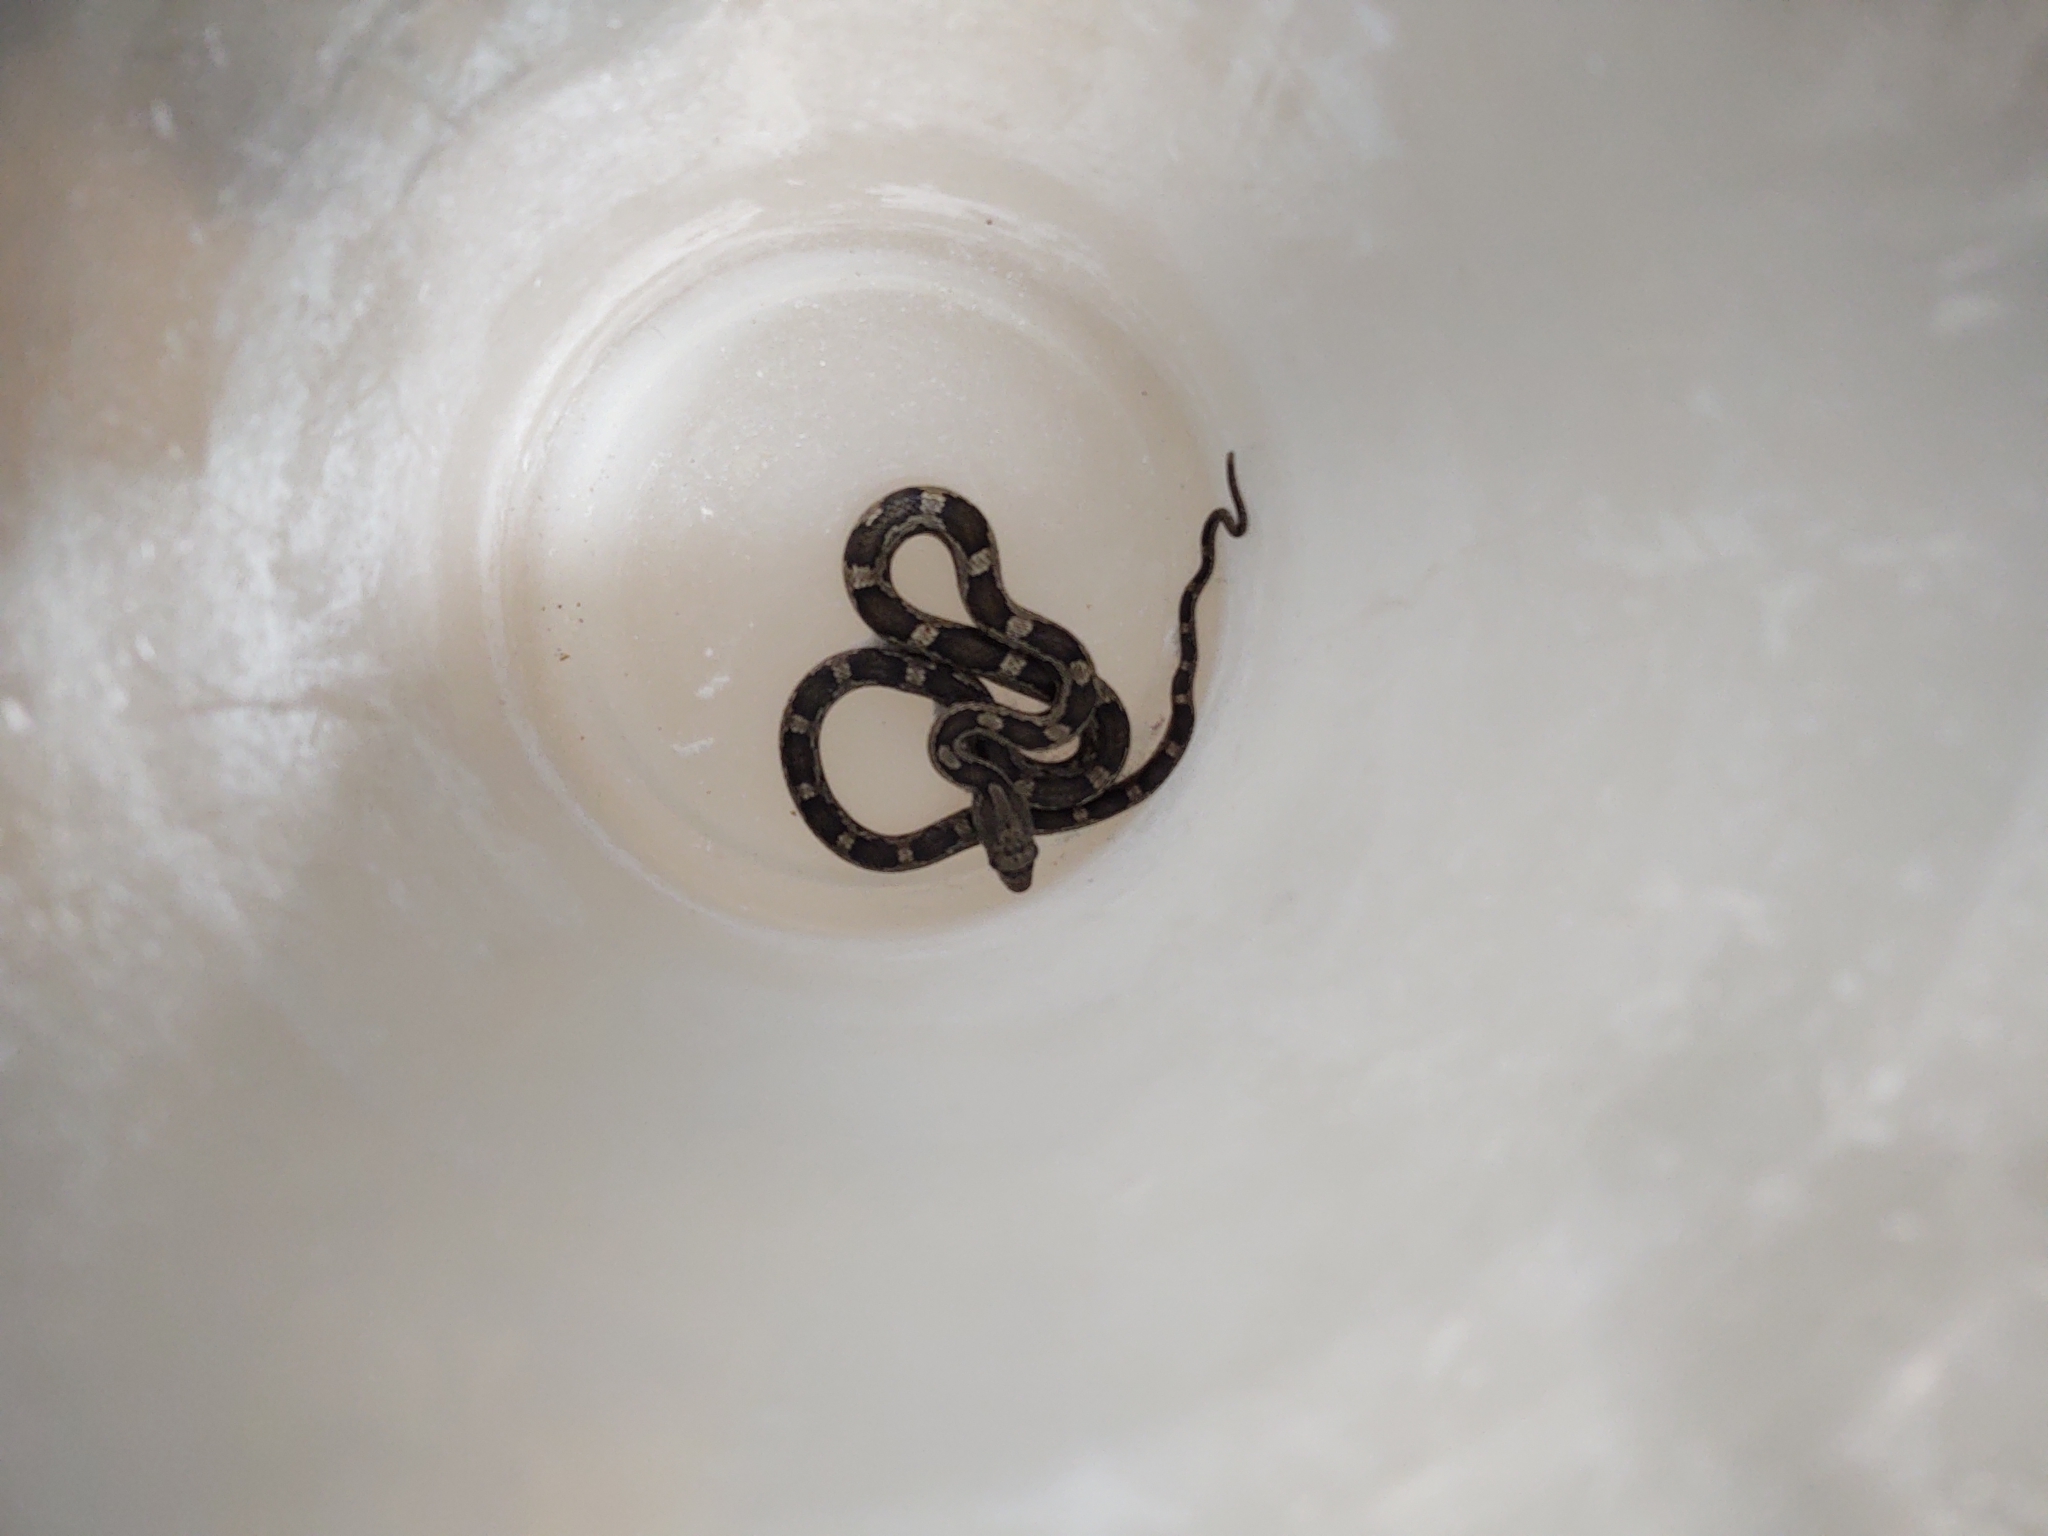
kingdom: Animalia
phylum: Chordata
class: Squamata
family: Colubridae
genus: Pantherophis
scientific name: Pantherophis spiloides
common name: Gray rat snake
